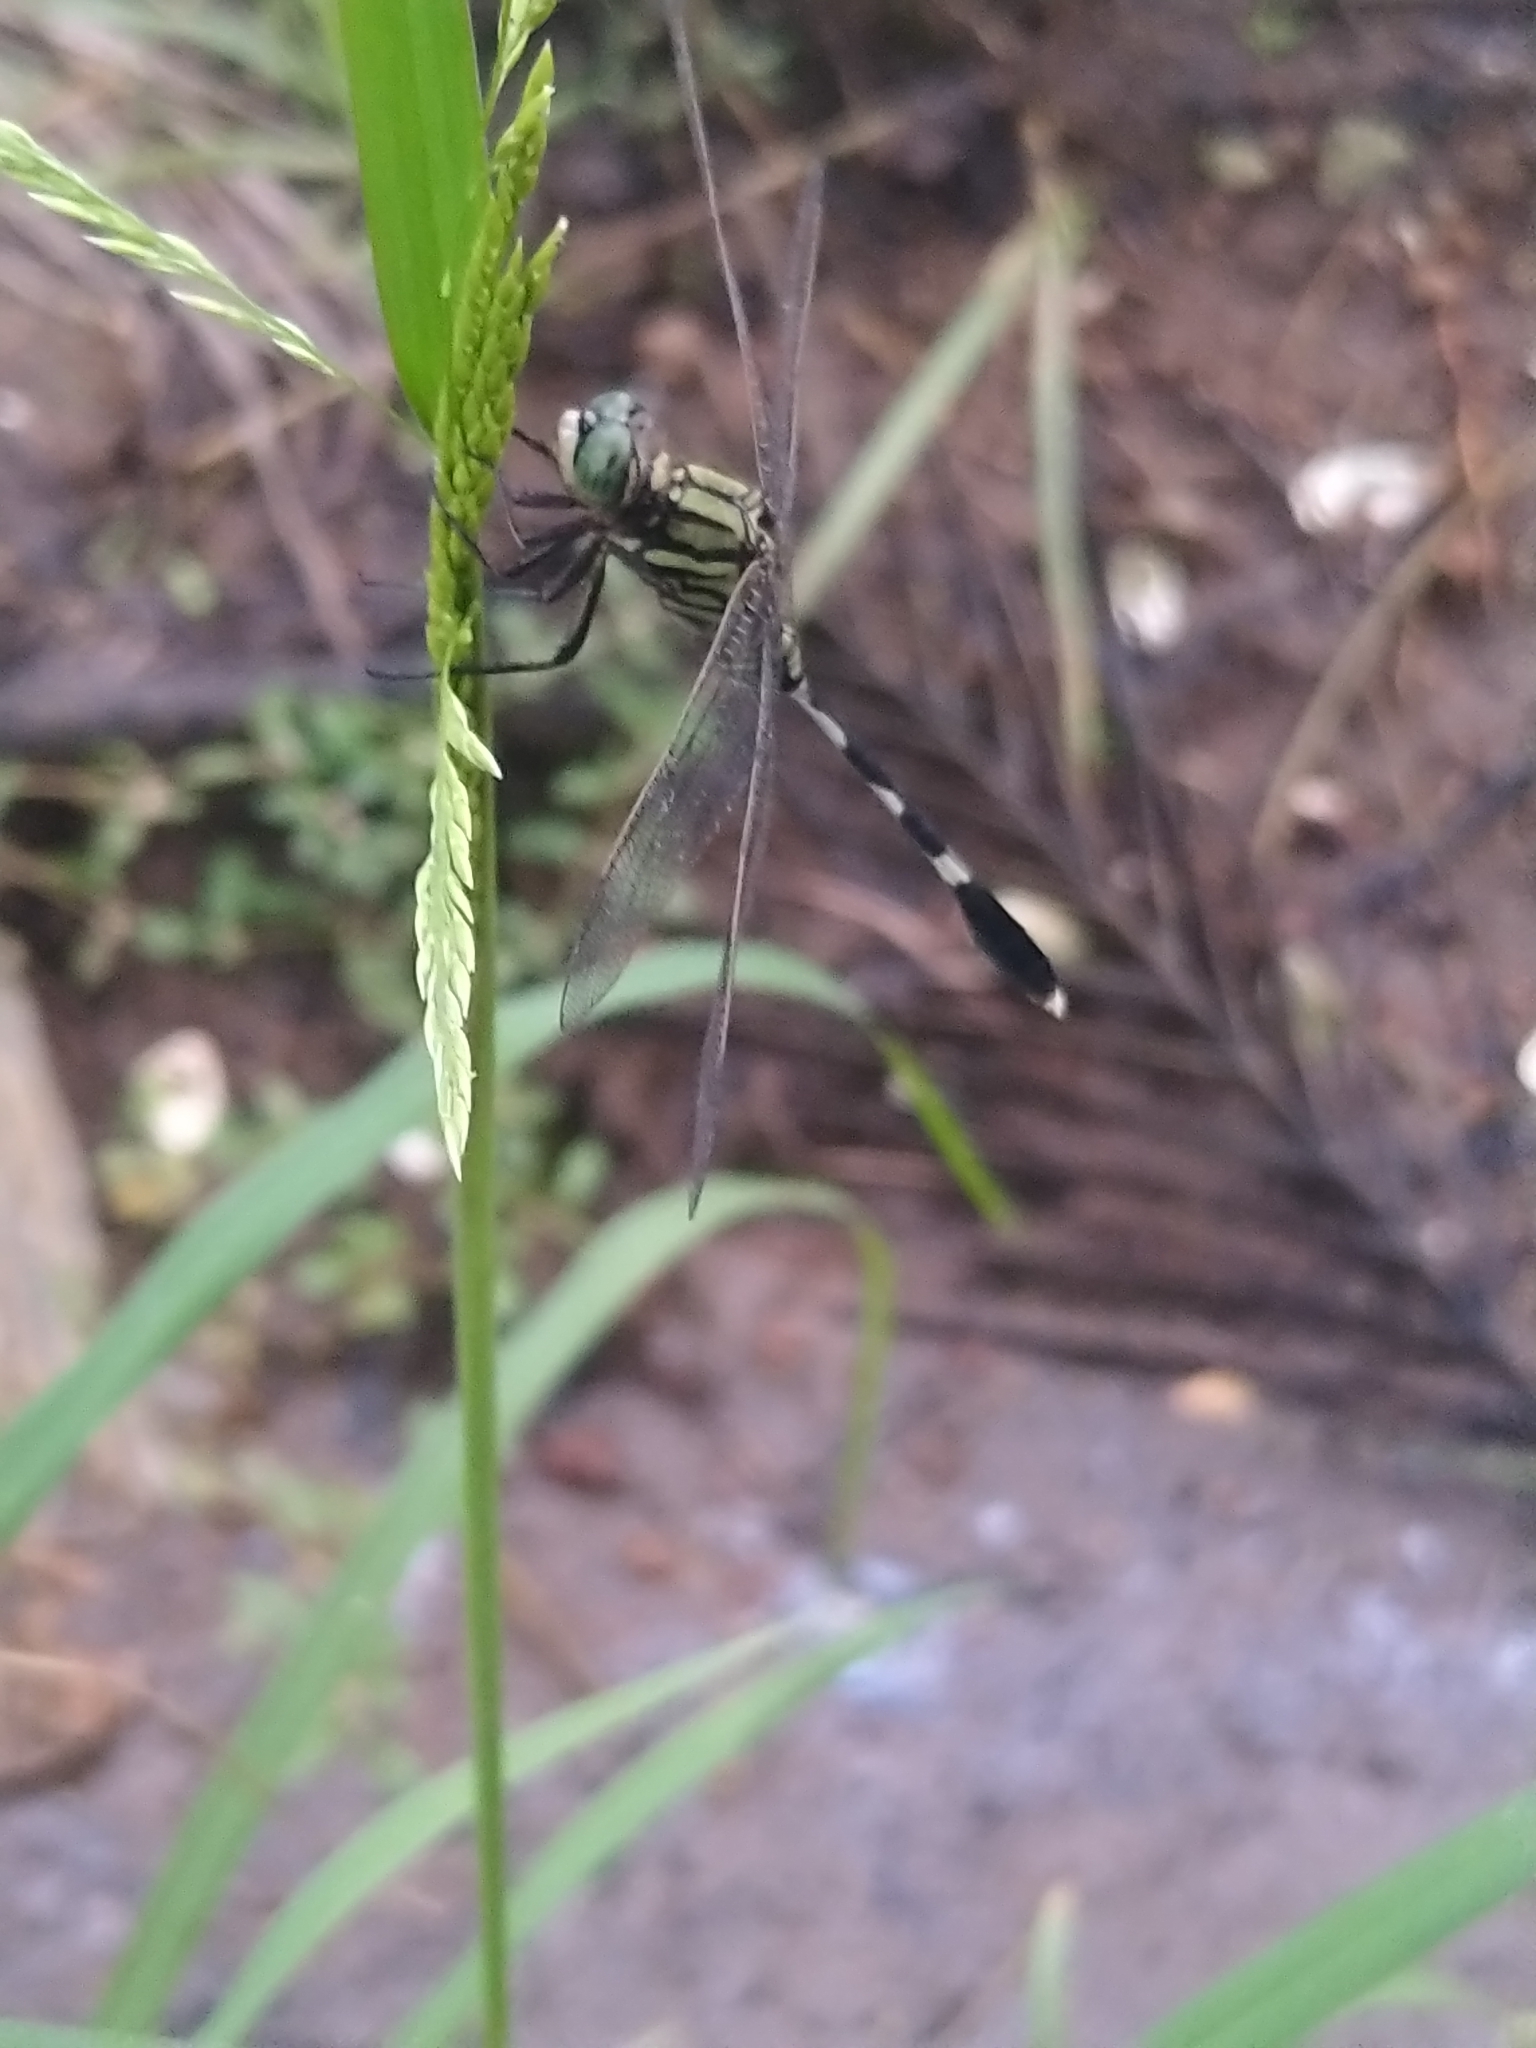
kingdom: Animalia
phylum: Arthropoda
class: Insecta
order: Odonata
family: Libellulidae
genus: Orthetrum
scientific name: Orthetrum sabina
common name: Slender skimmer
